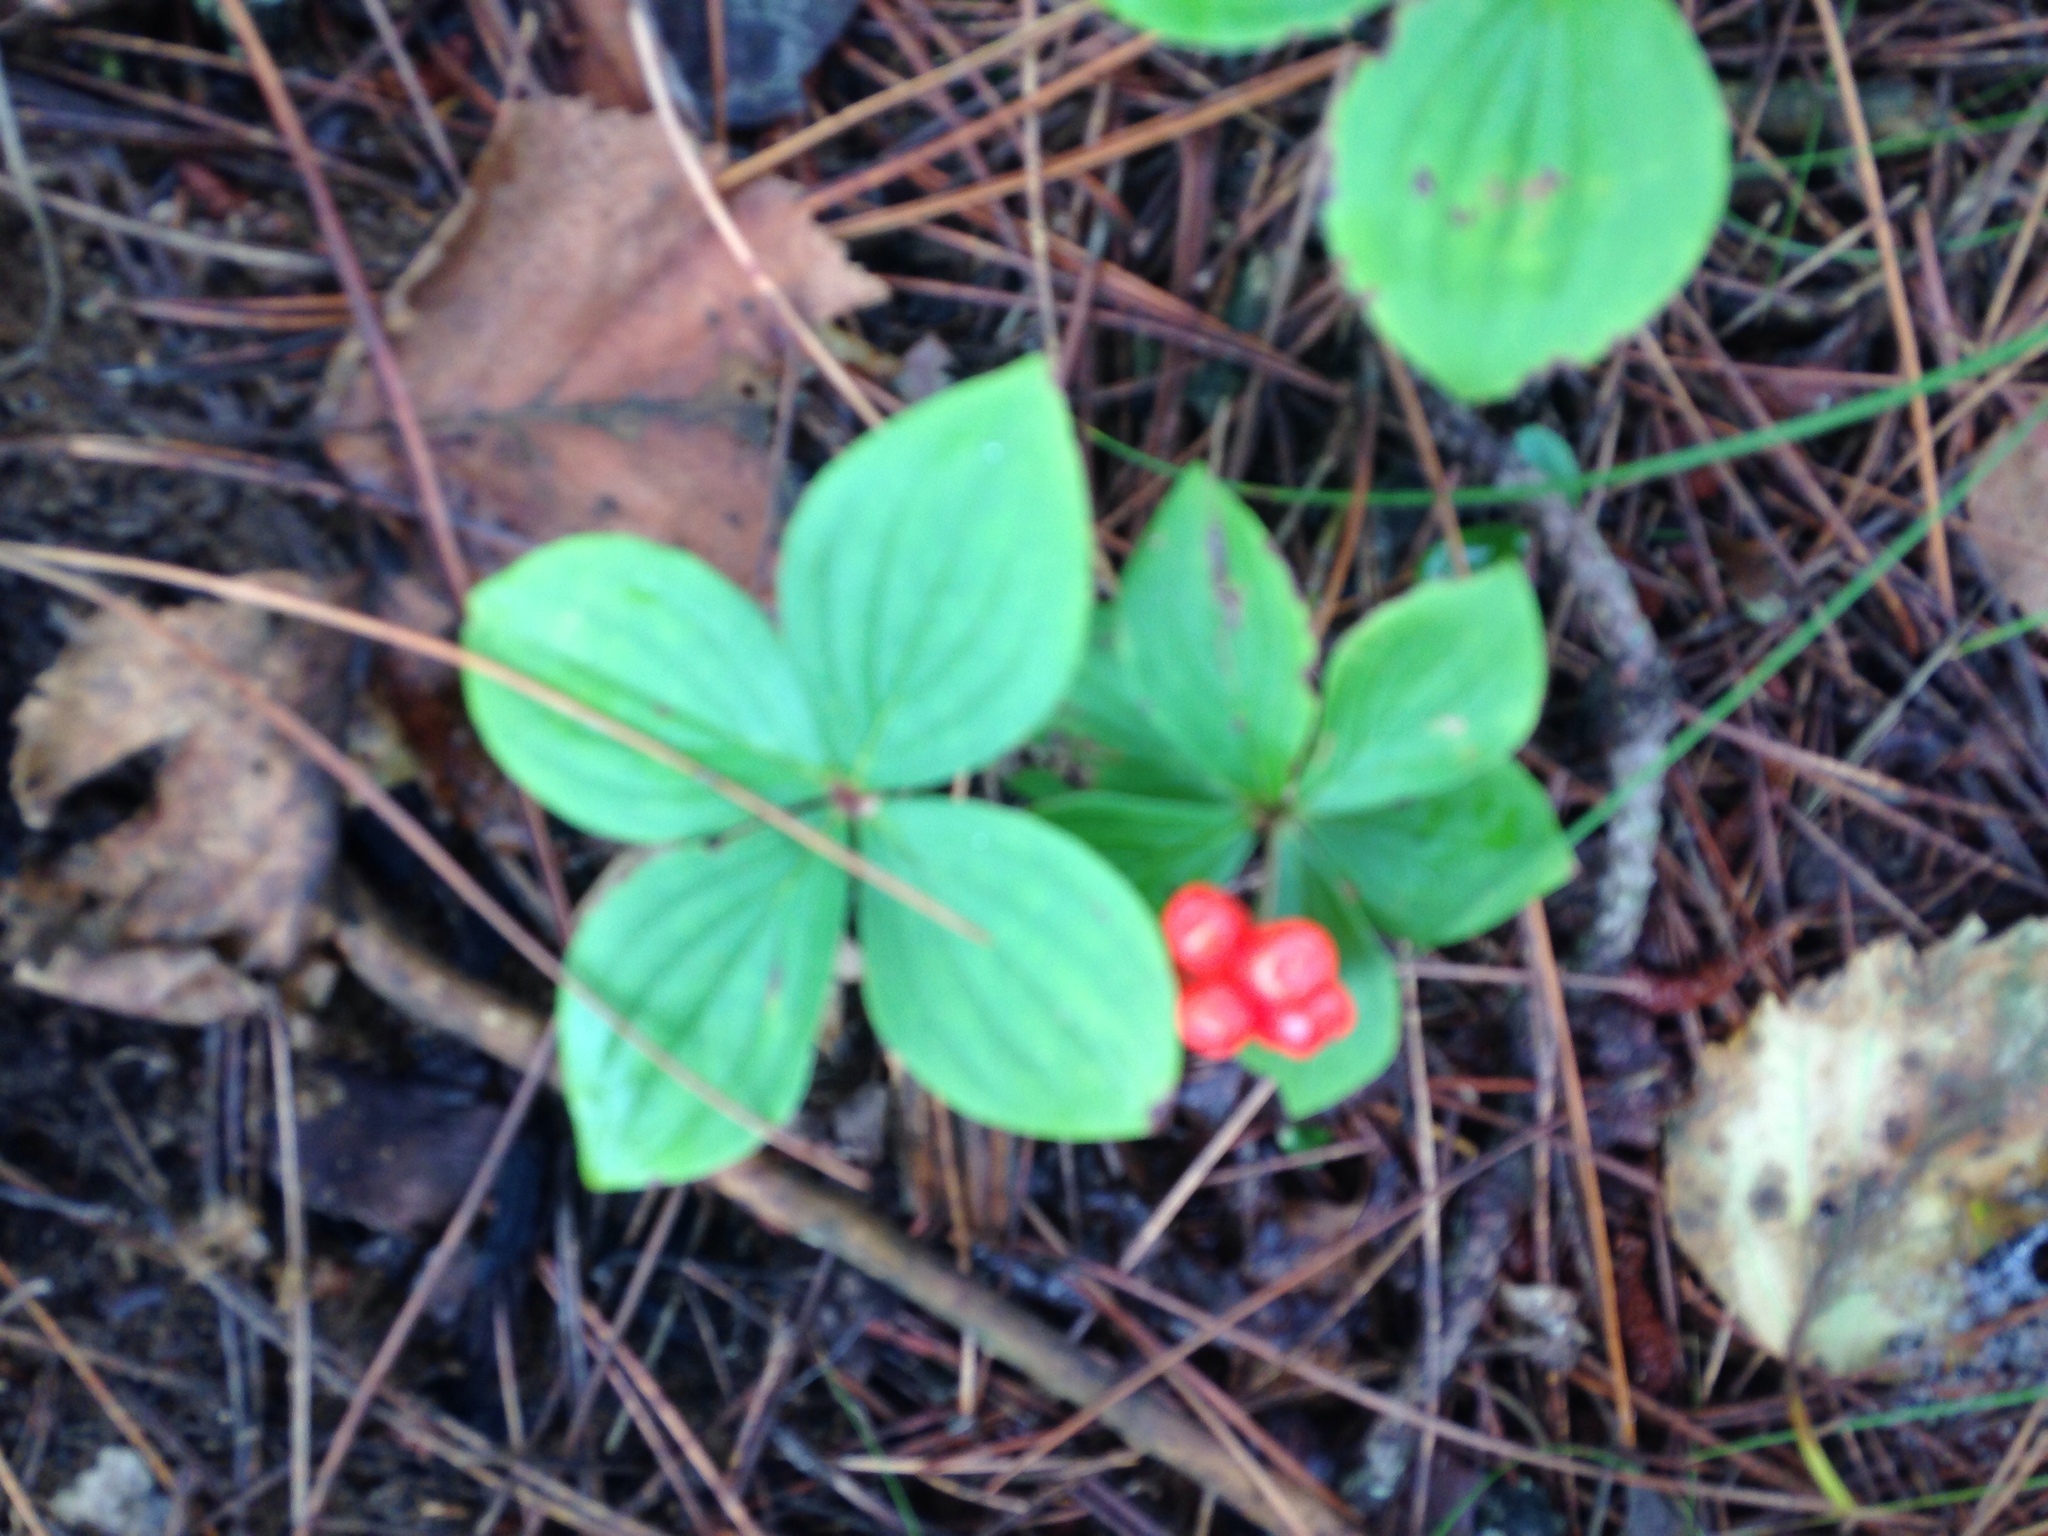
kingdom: Plantae
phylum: Tracheophyta
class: Magnoliopsida
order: Cornales
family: Cornaceae
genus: Cornus
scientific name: Cornus canadensis
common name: Creeping dogwood
